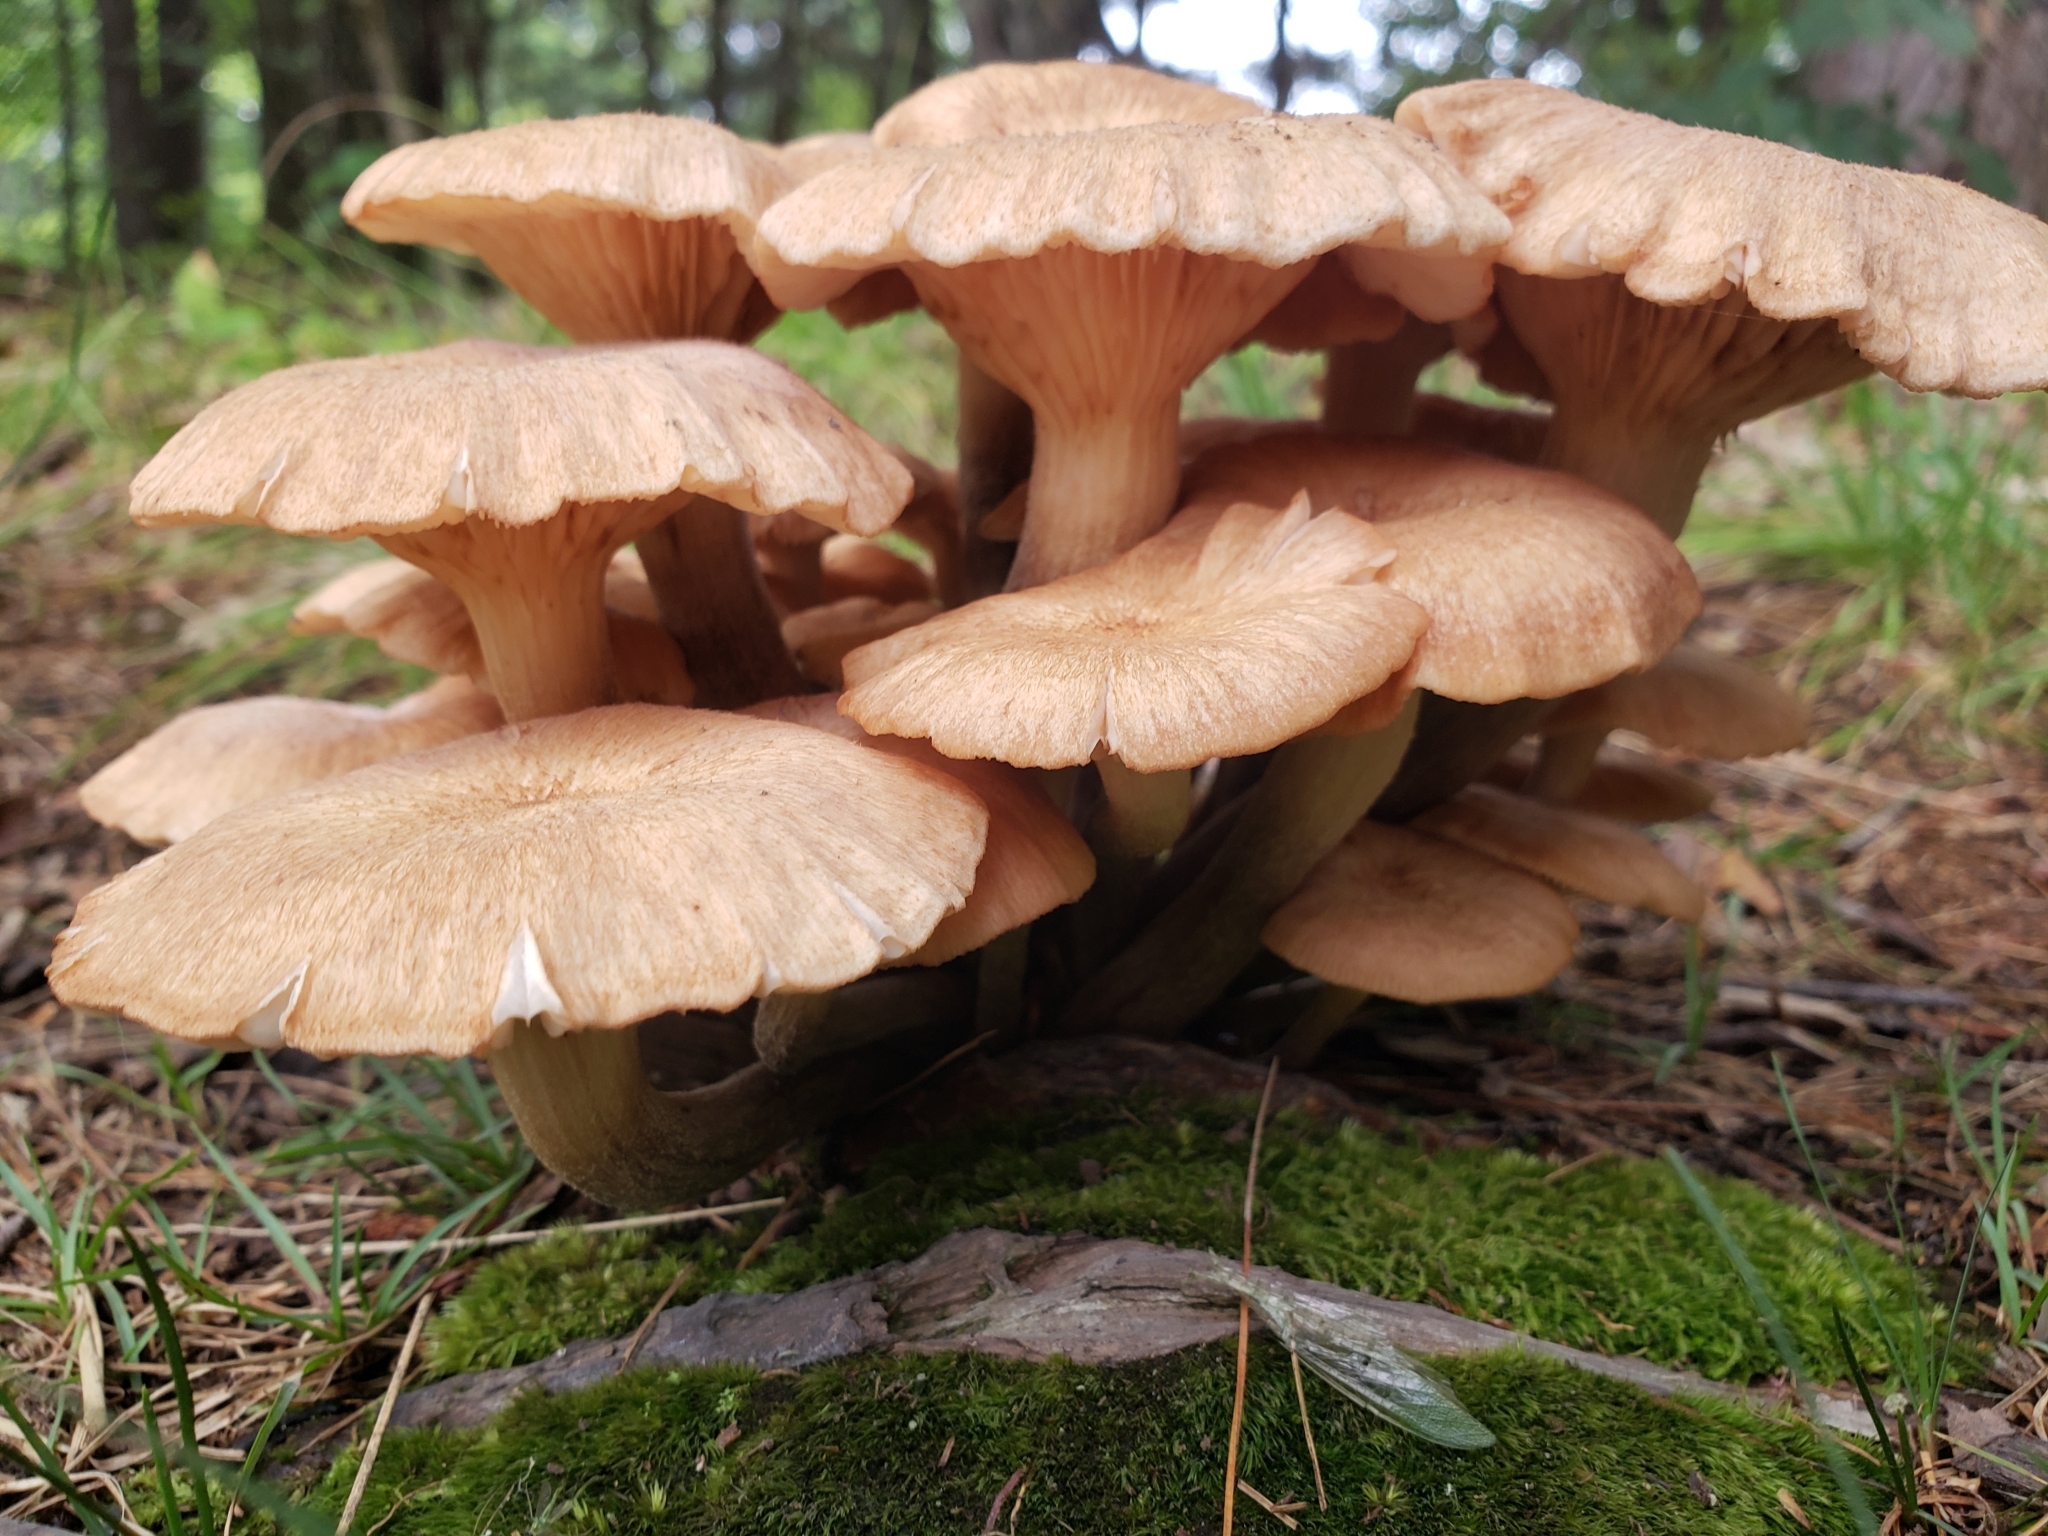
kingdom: Fungi
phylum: Basidiomycota
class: Agaricomycetes
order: Agaricales
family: Physalacriaceae
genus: Desarmillaria
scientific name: Desarmillaria caespitosa
